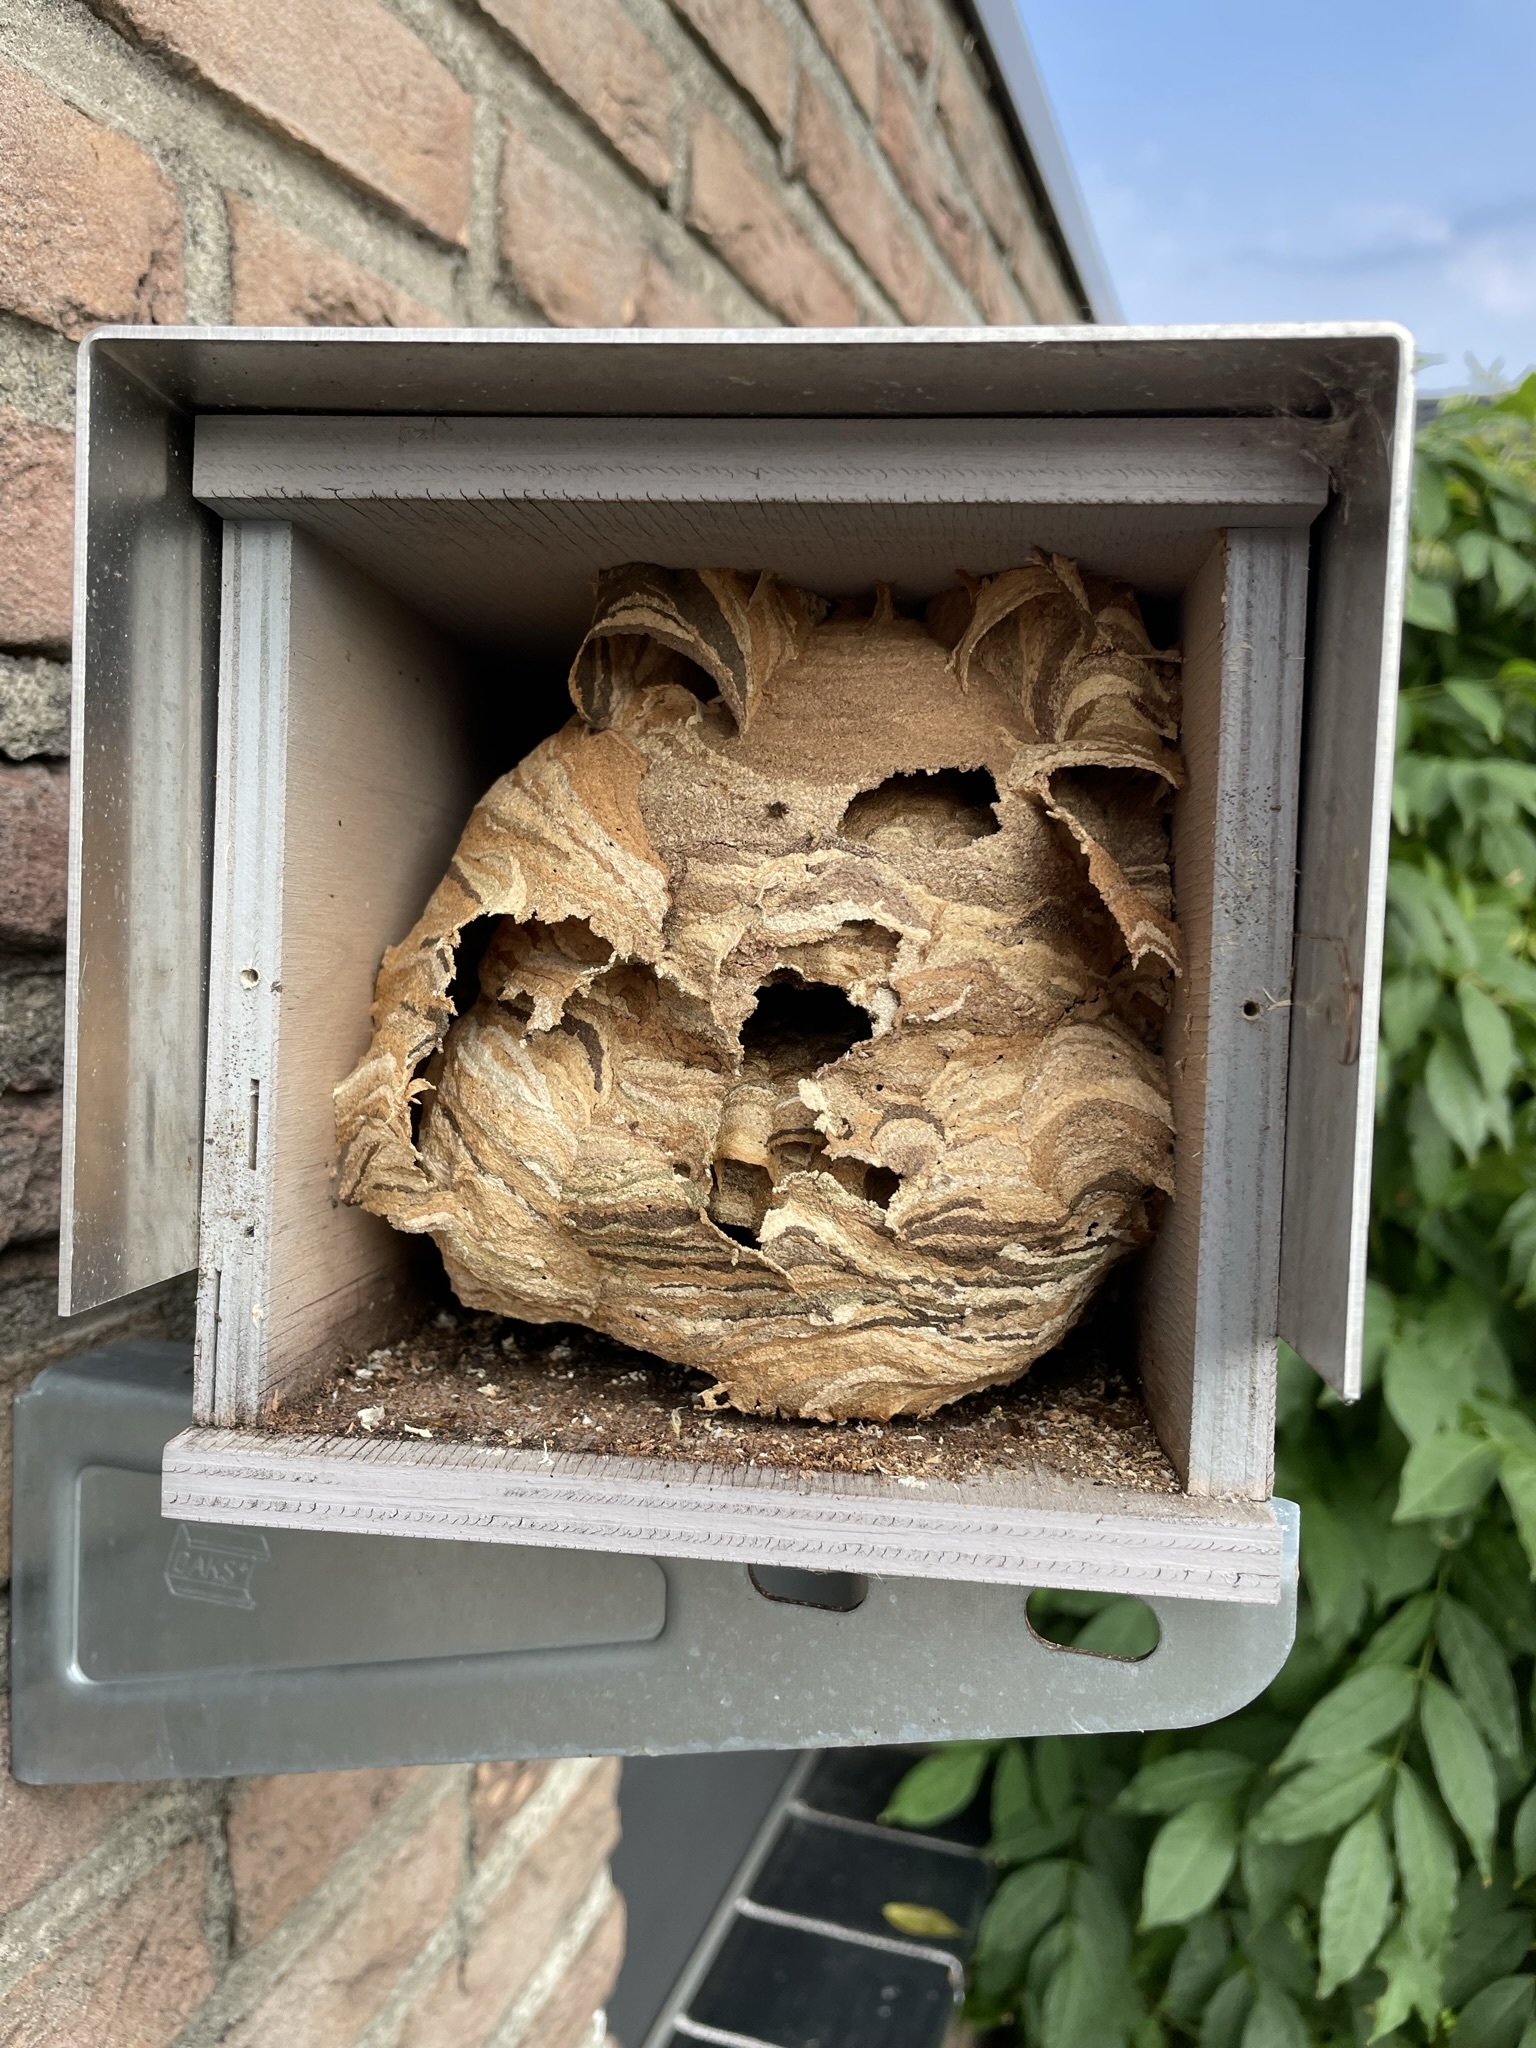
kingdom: Animalia
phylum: Arthropoda
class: Insecta
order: Hymenoptera
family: Vespidae
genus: Vespa
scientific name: Vespa crabro
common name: Hornet
